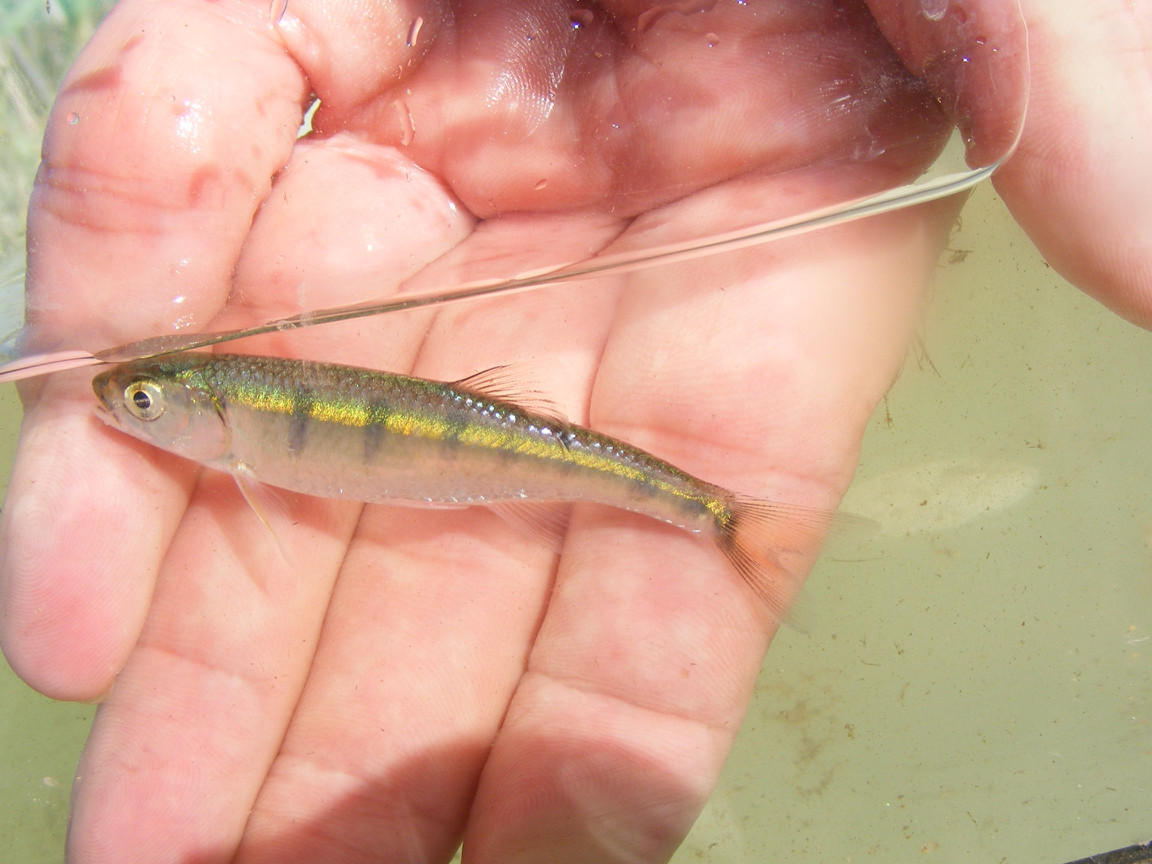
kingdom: Animalia
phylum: Chordata
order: Cypriniformes
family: Cyprinidae
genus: Opsaridium
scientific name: Opsaridium peringueyi
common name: Southern barred minnow
